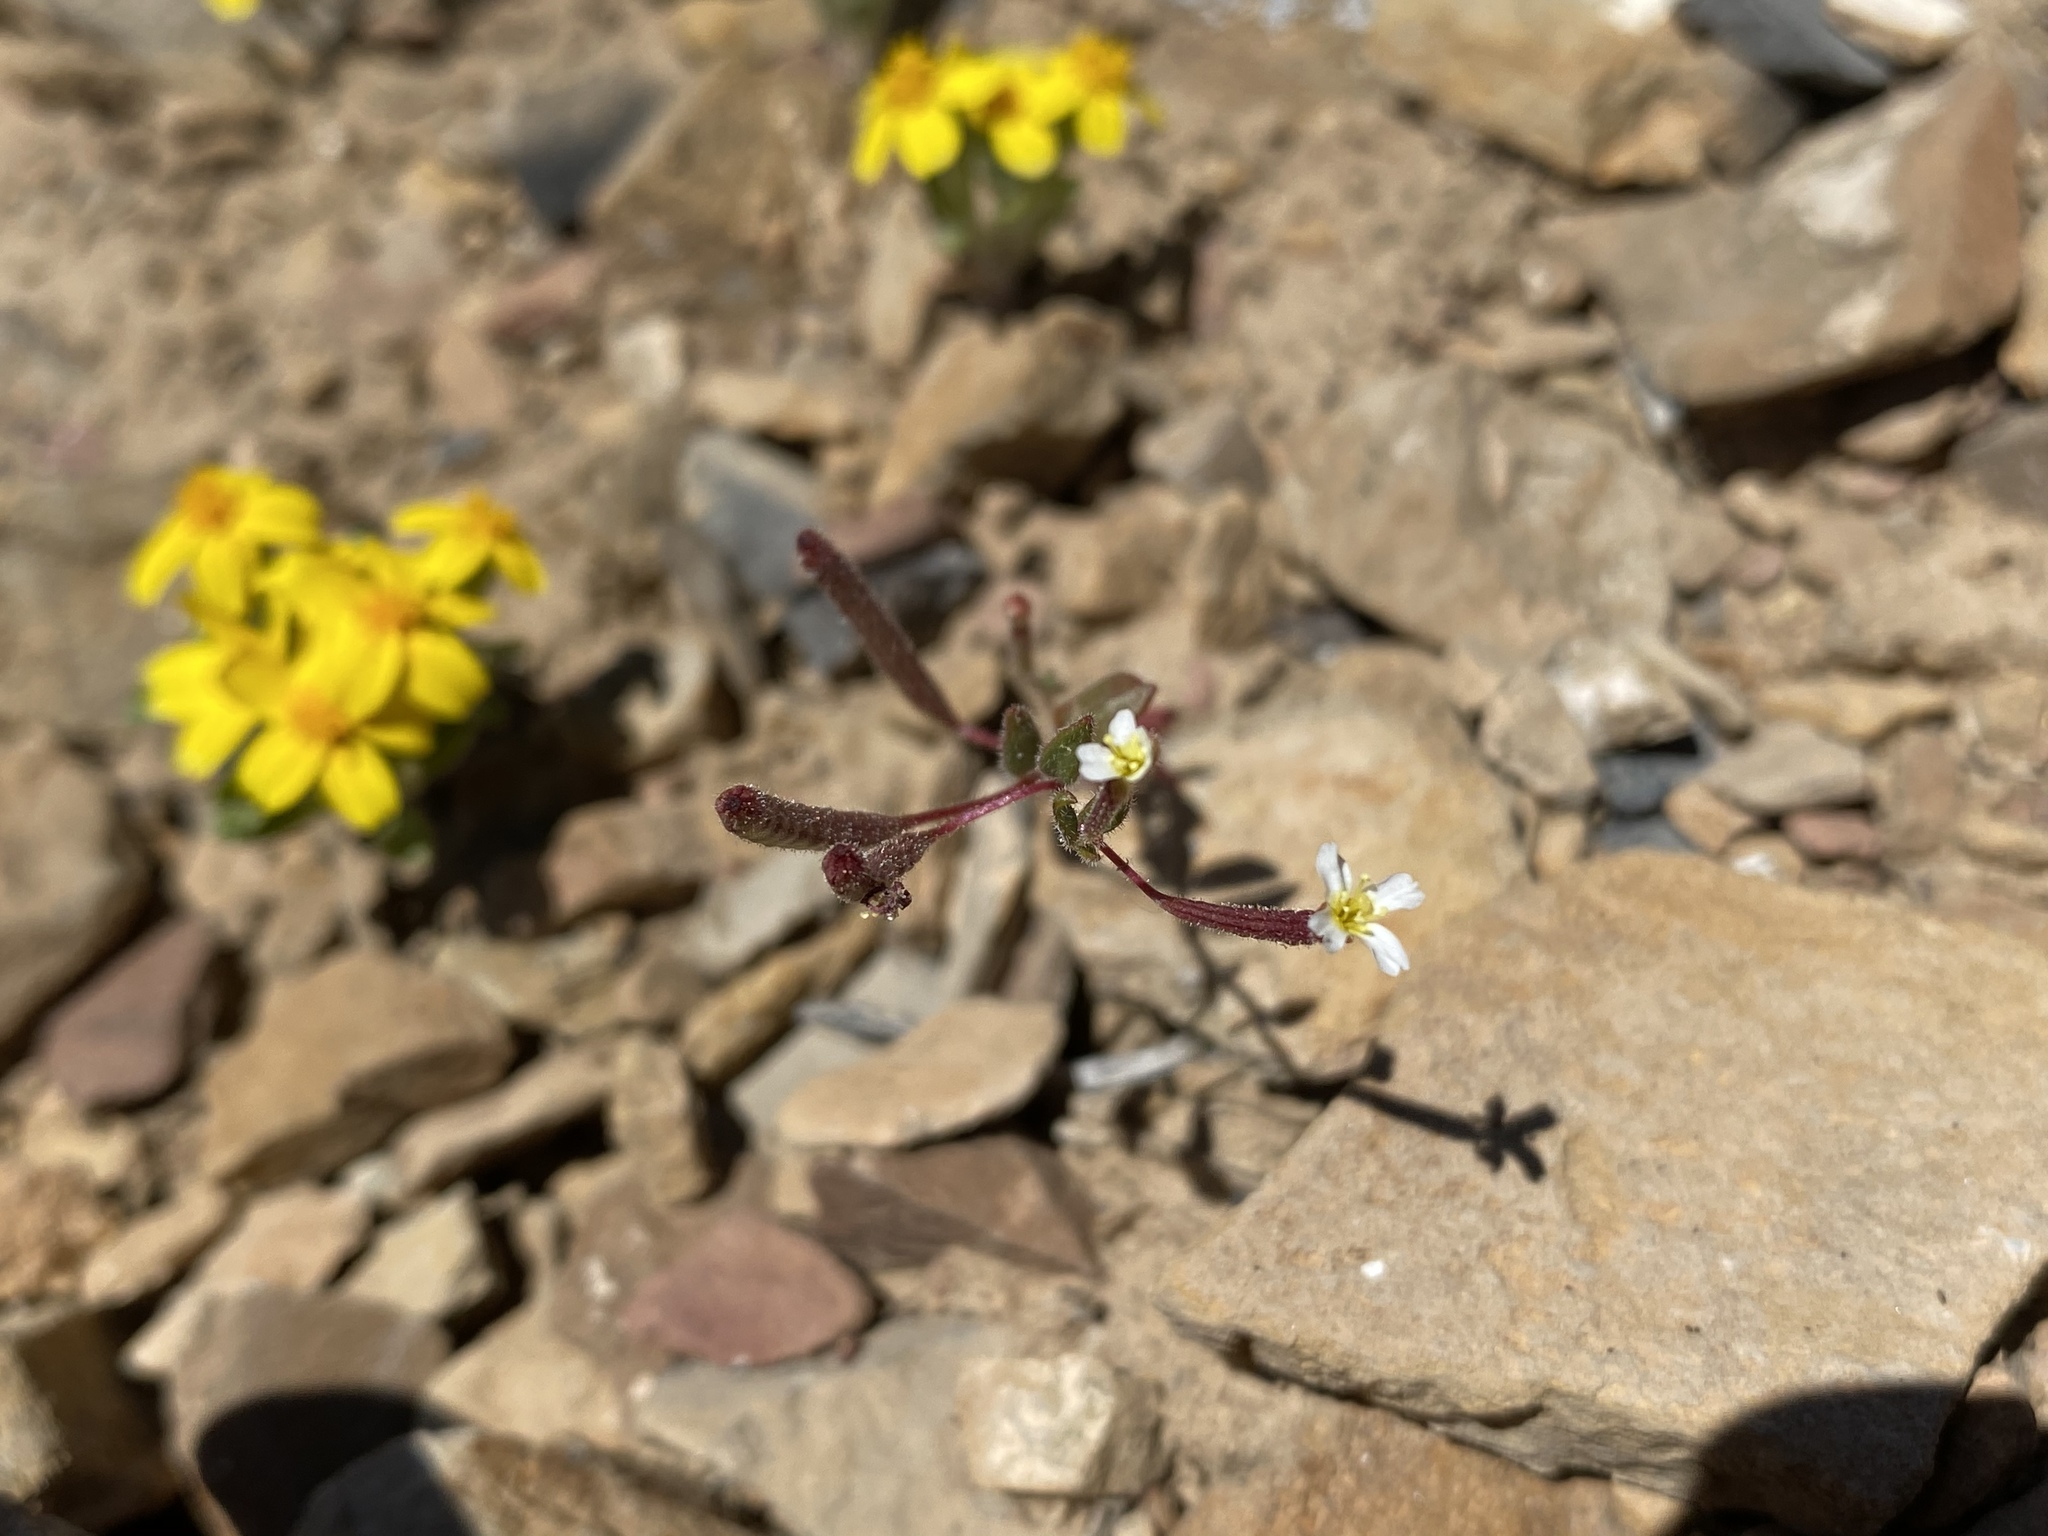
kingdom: Plantae
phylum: Tracheophyta
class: Magnoliopsida
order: Myrtales
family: Onagraceae
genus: Chylismiella
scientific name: Chylismiella pterosperma
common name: Wingfruit suncup
